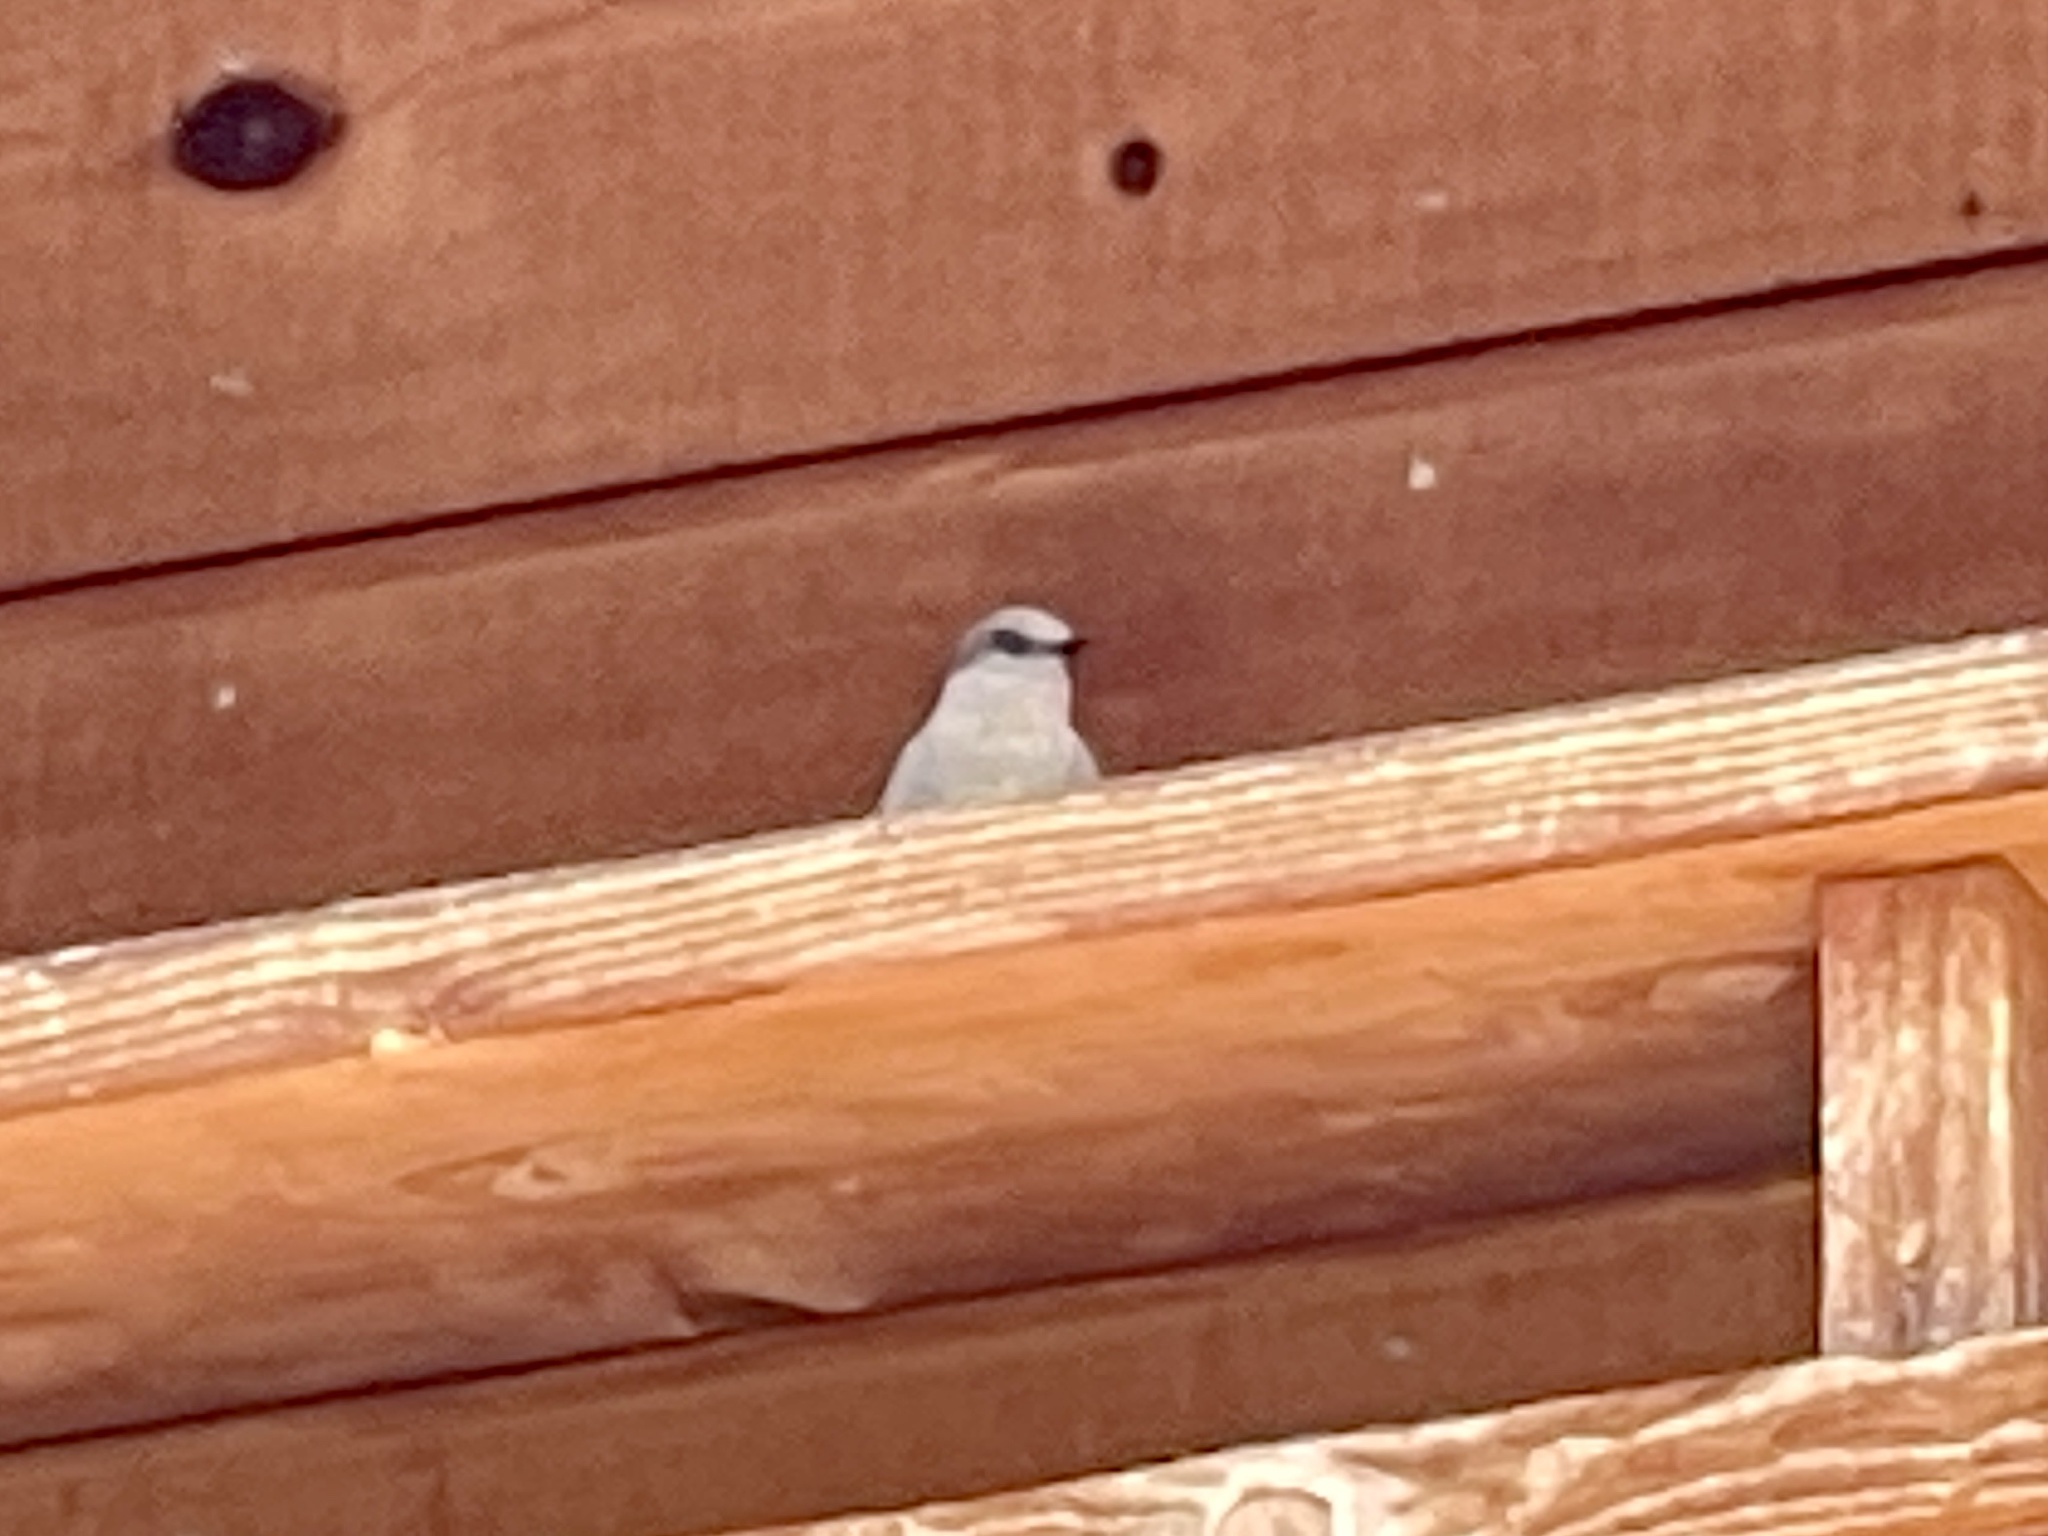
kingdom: Animalia
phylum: Chordata
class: Aves
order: Passeriformes
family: Tyrannidae
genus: Sayornis
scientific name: Sayornis saya
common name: Say's phoebe
